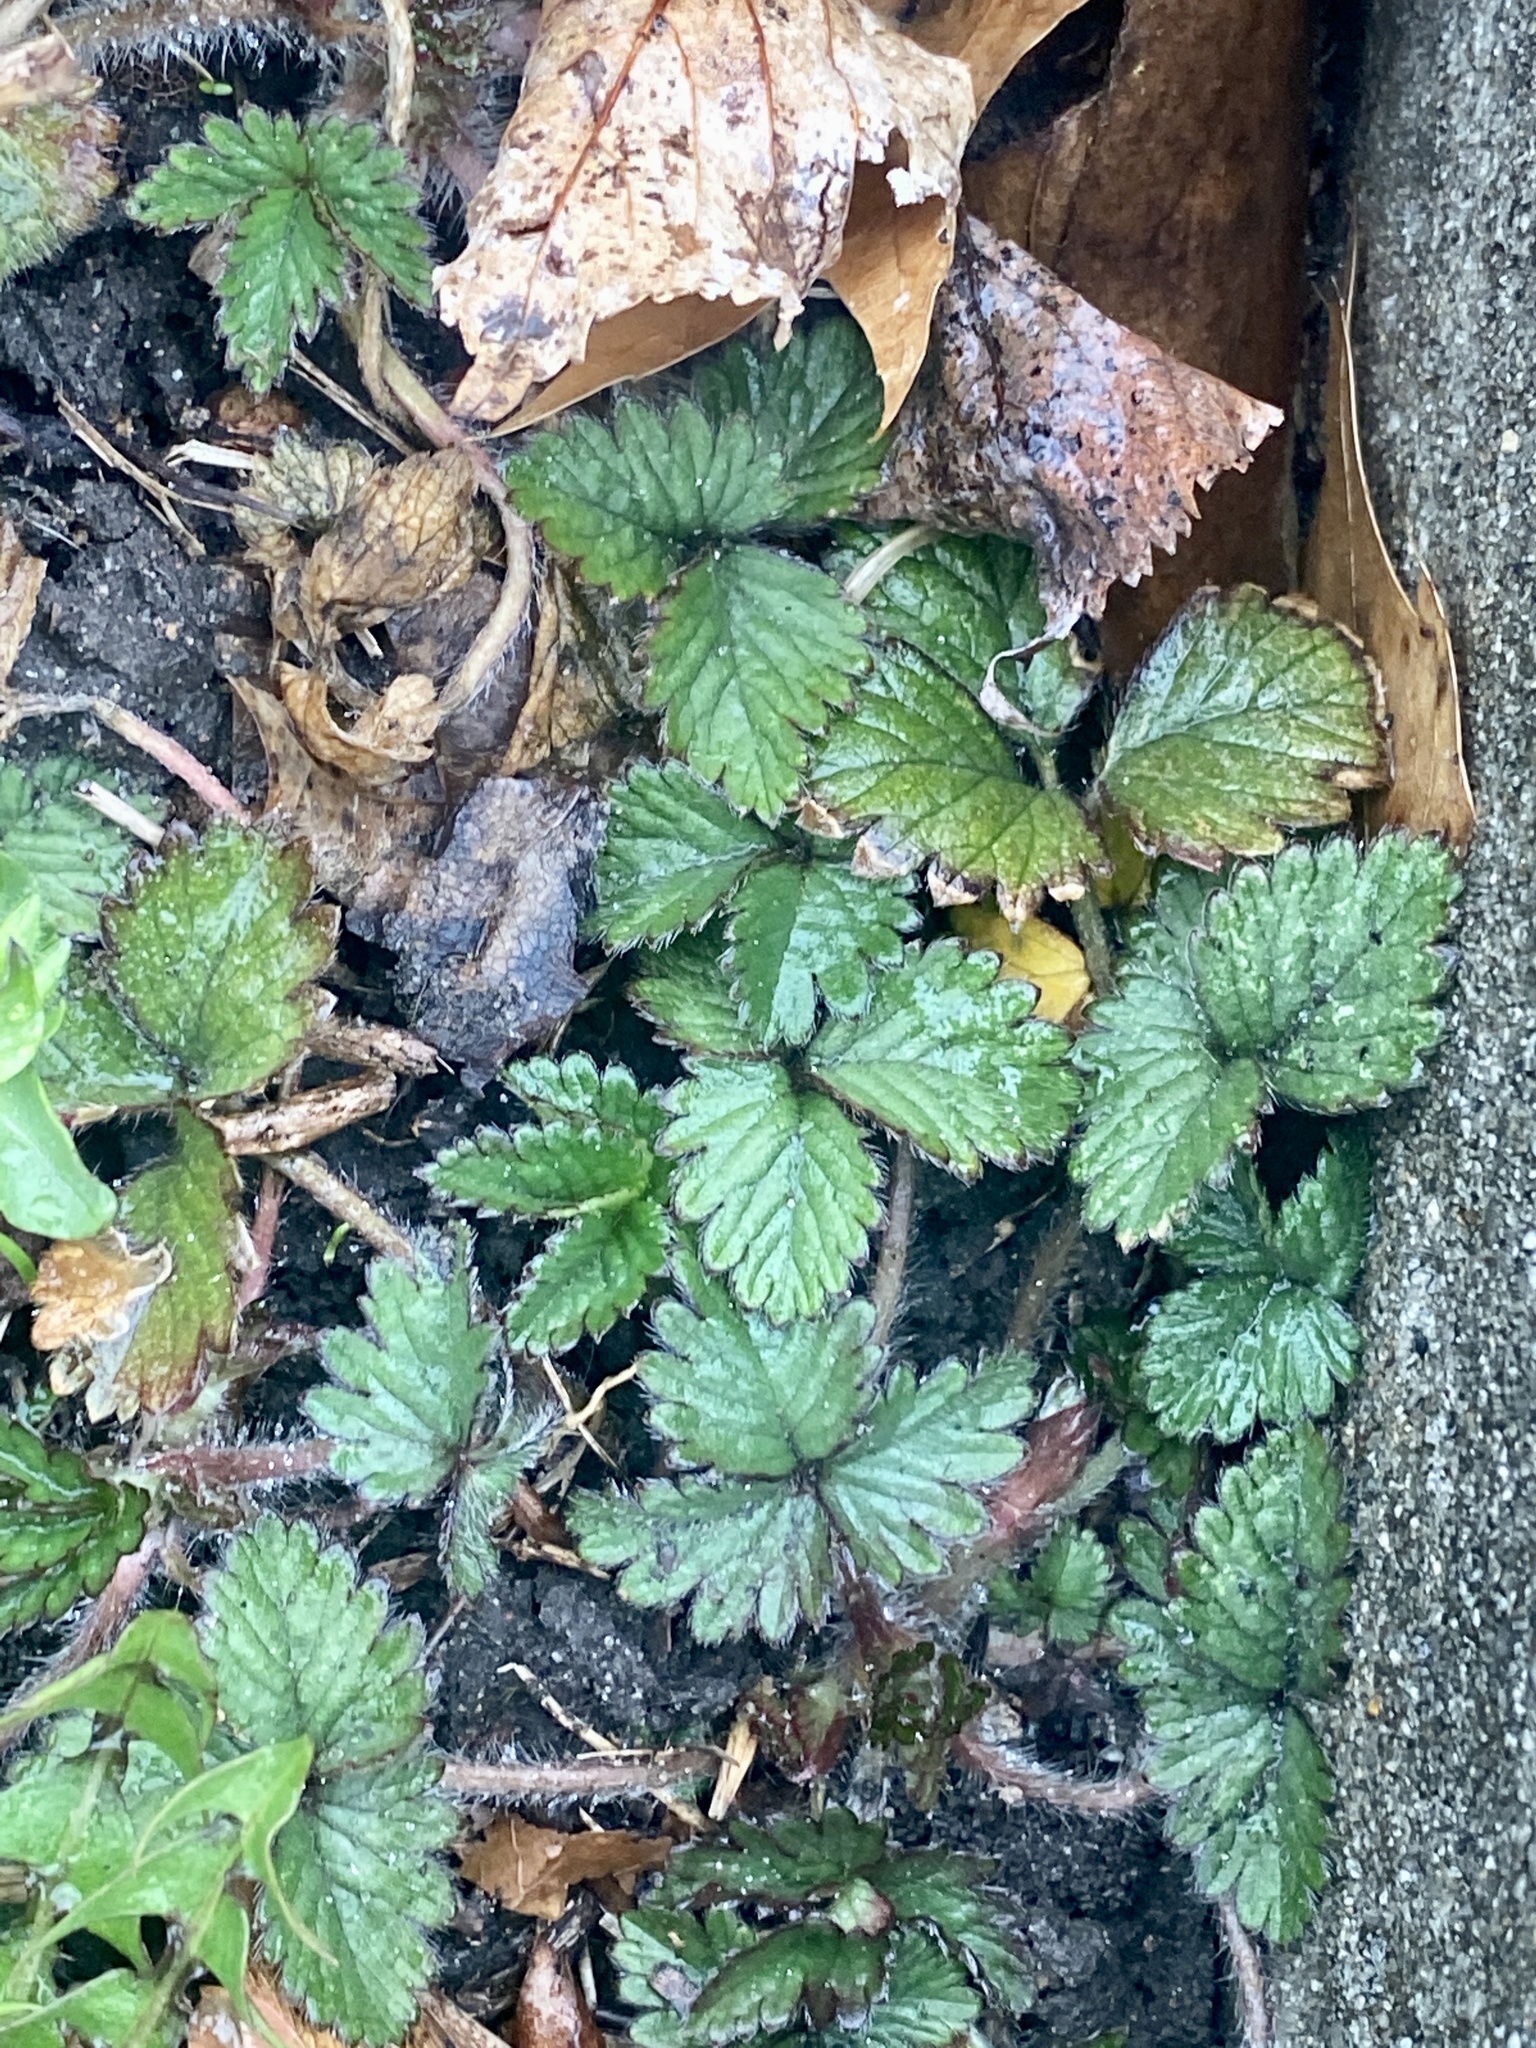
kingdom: Plantae
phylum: Tracheophyta
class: Magnoliopsida
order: Rosales
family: Rosaceae
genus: Potentilla
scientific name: Potentilla indica
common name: Yellow-flowered strawberry
